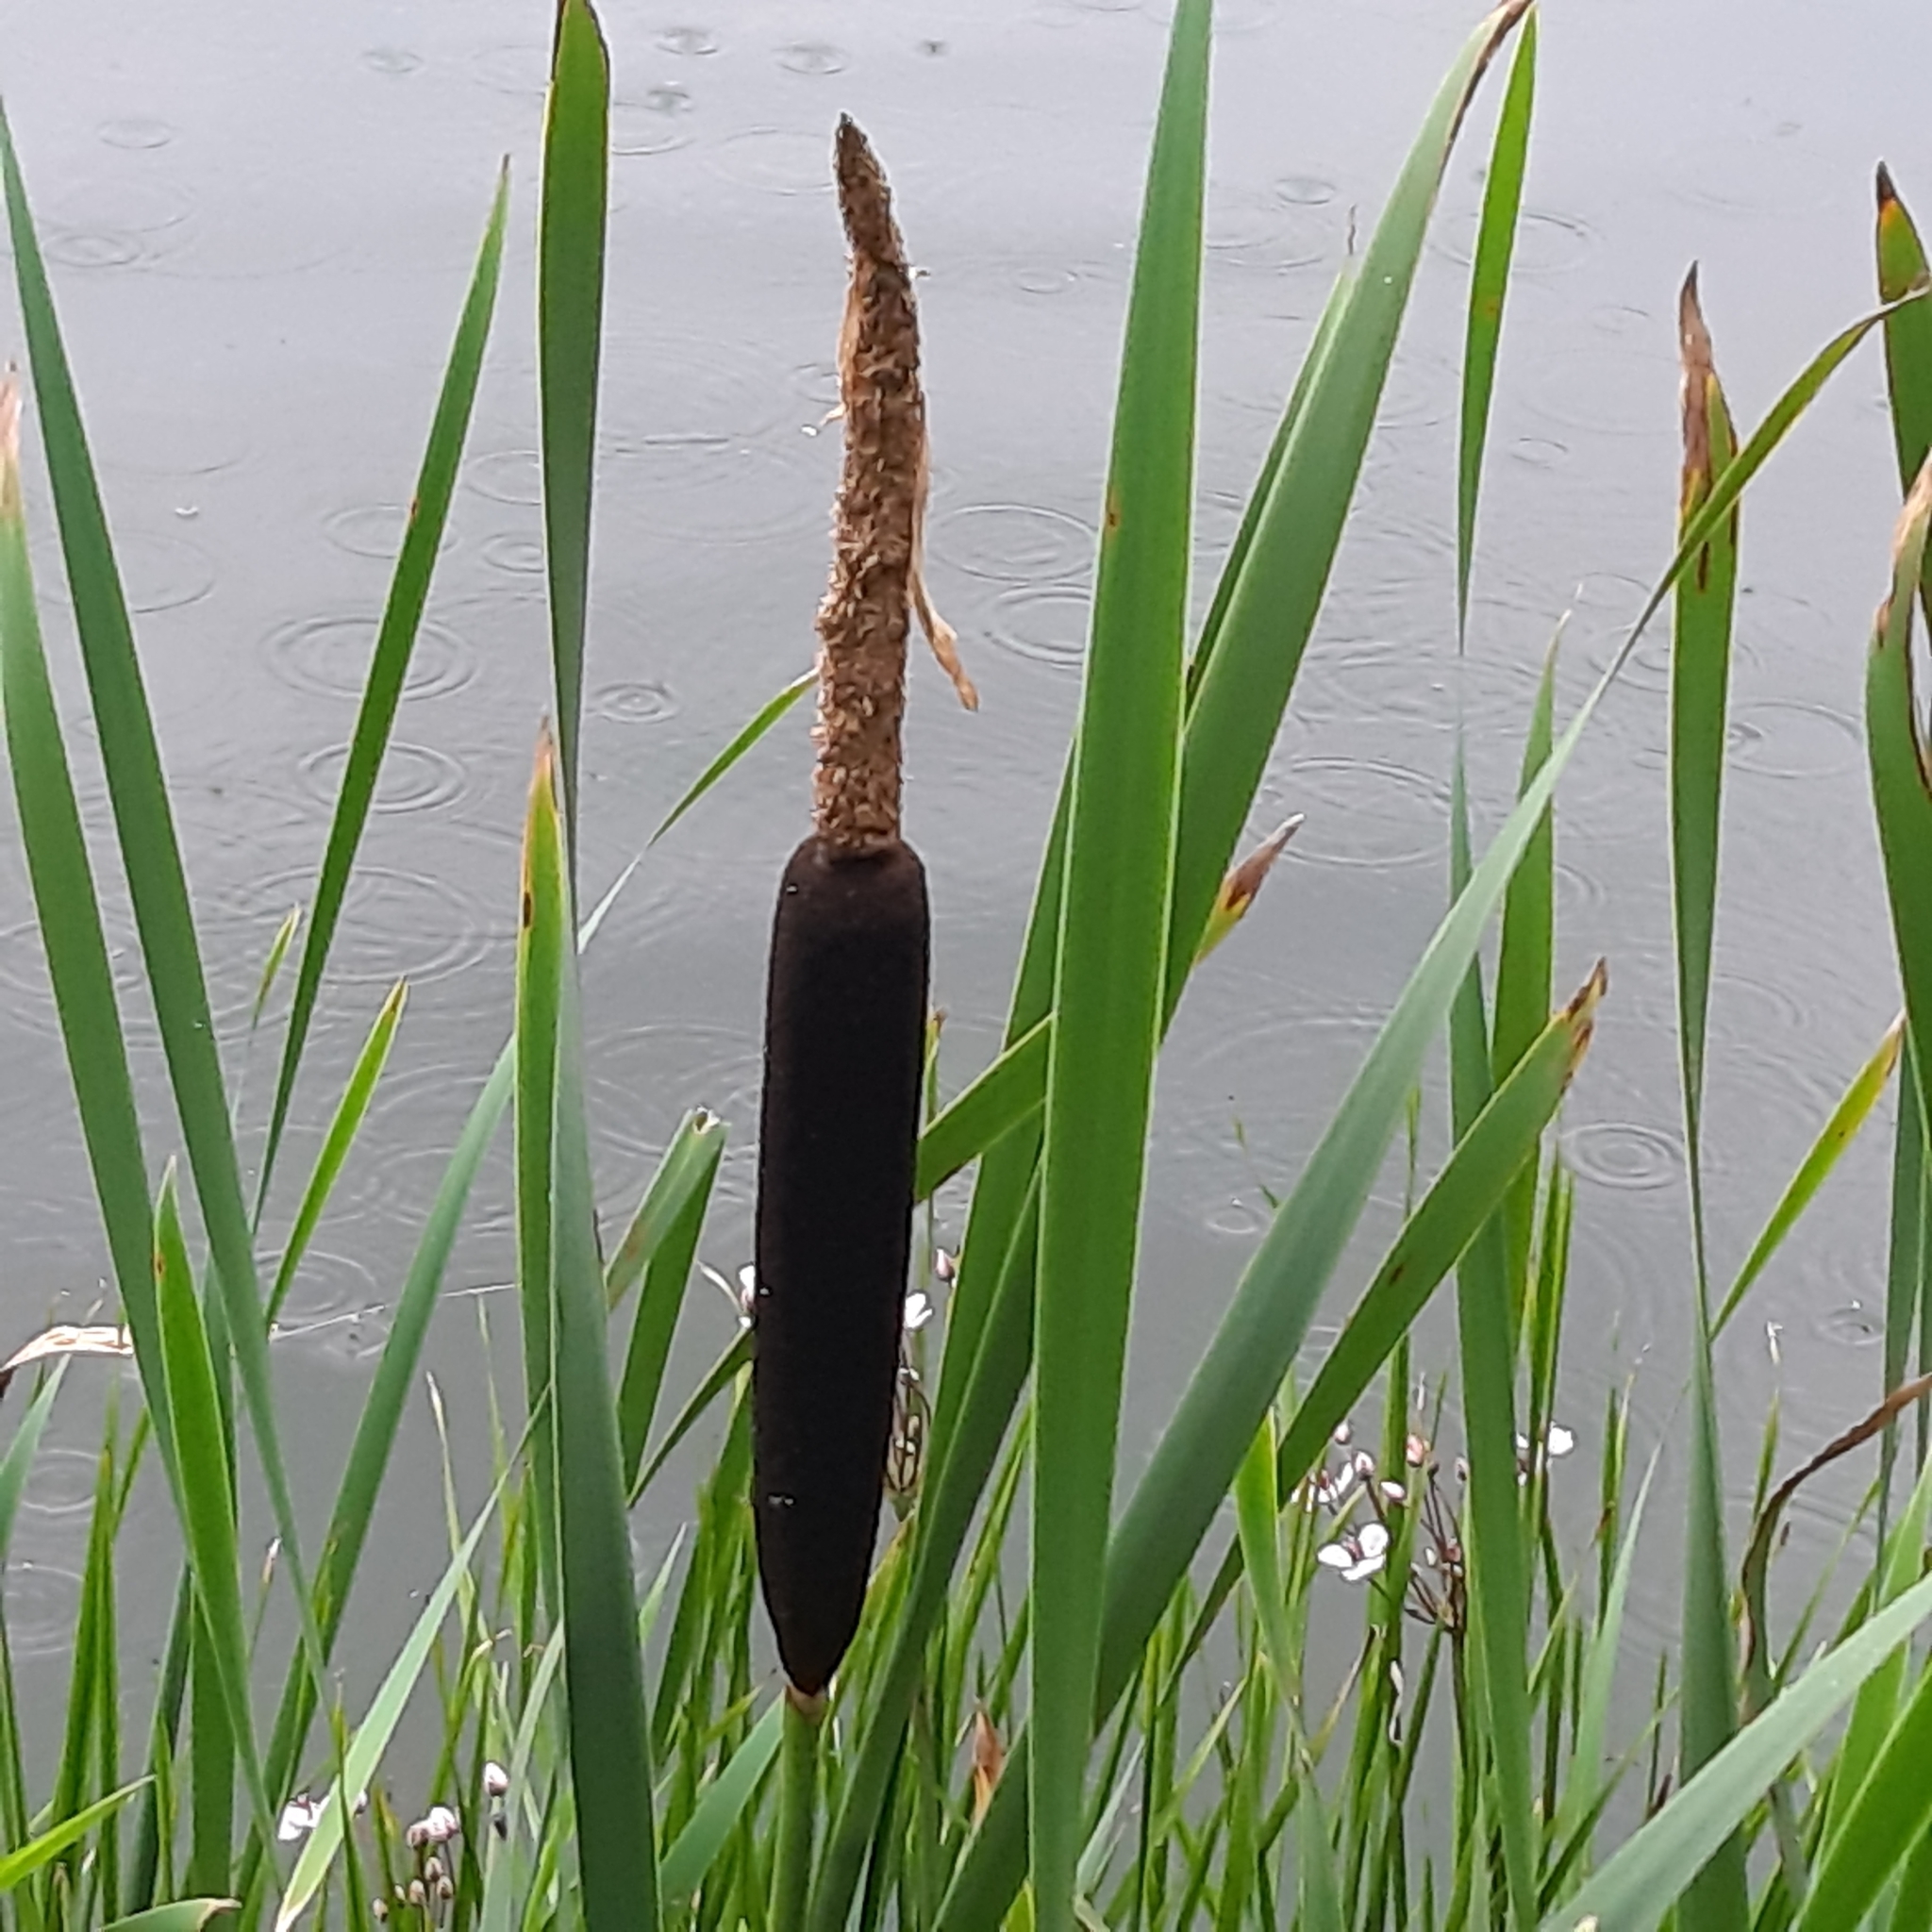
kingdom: Plantae
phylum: Tracheophyta
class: Liliopsida
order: Poales
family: Typhaceae
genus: Typha
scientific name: Typha latifolia
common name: Broadleaf cattail
